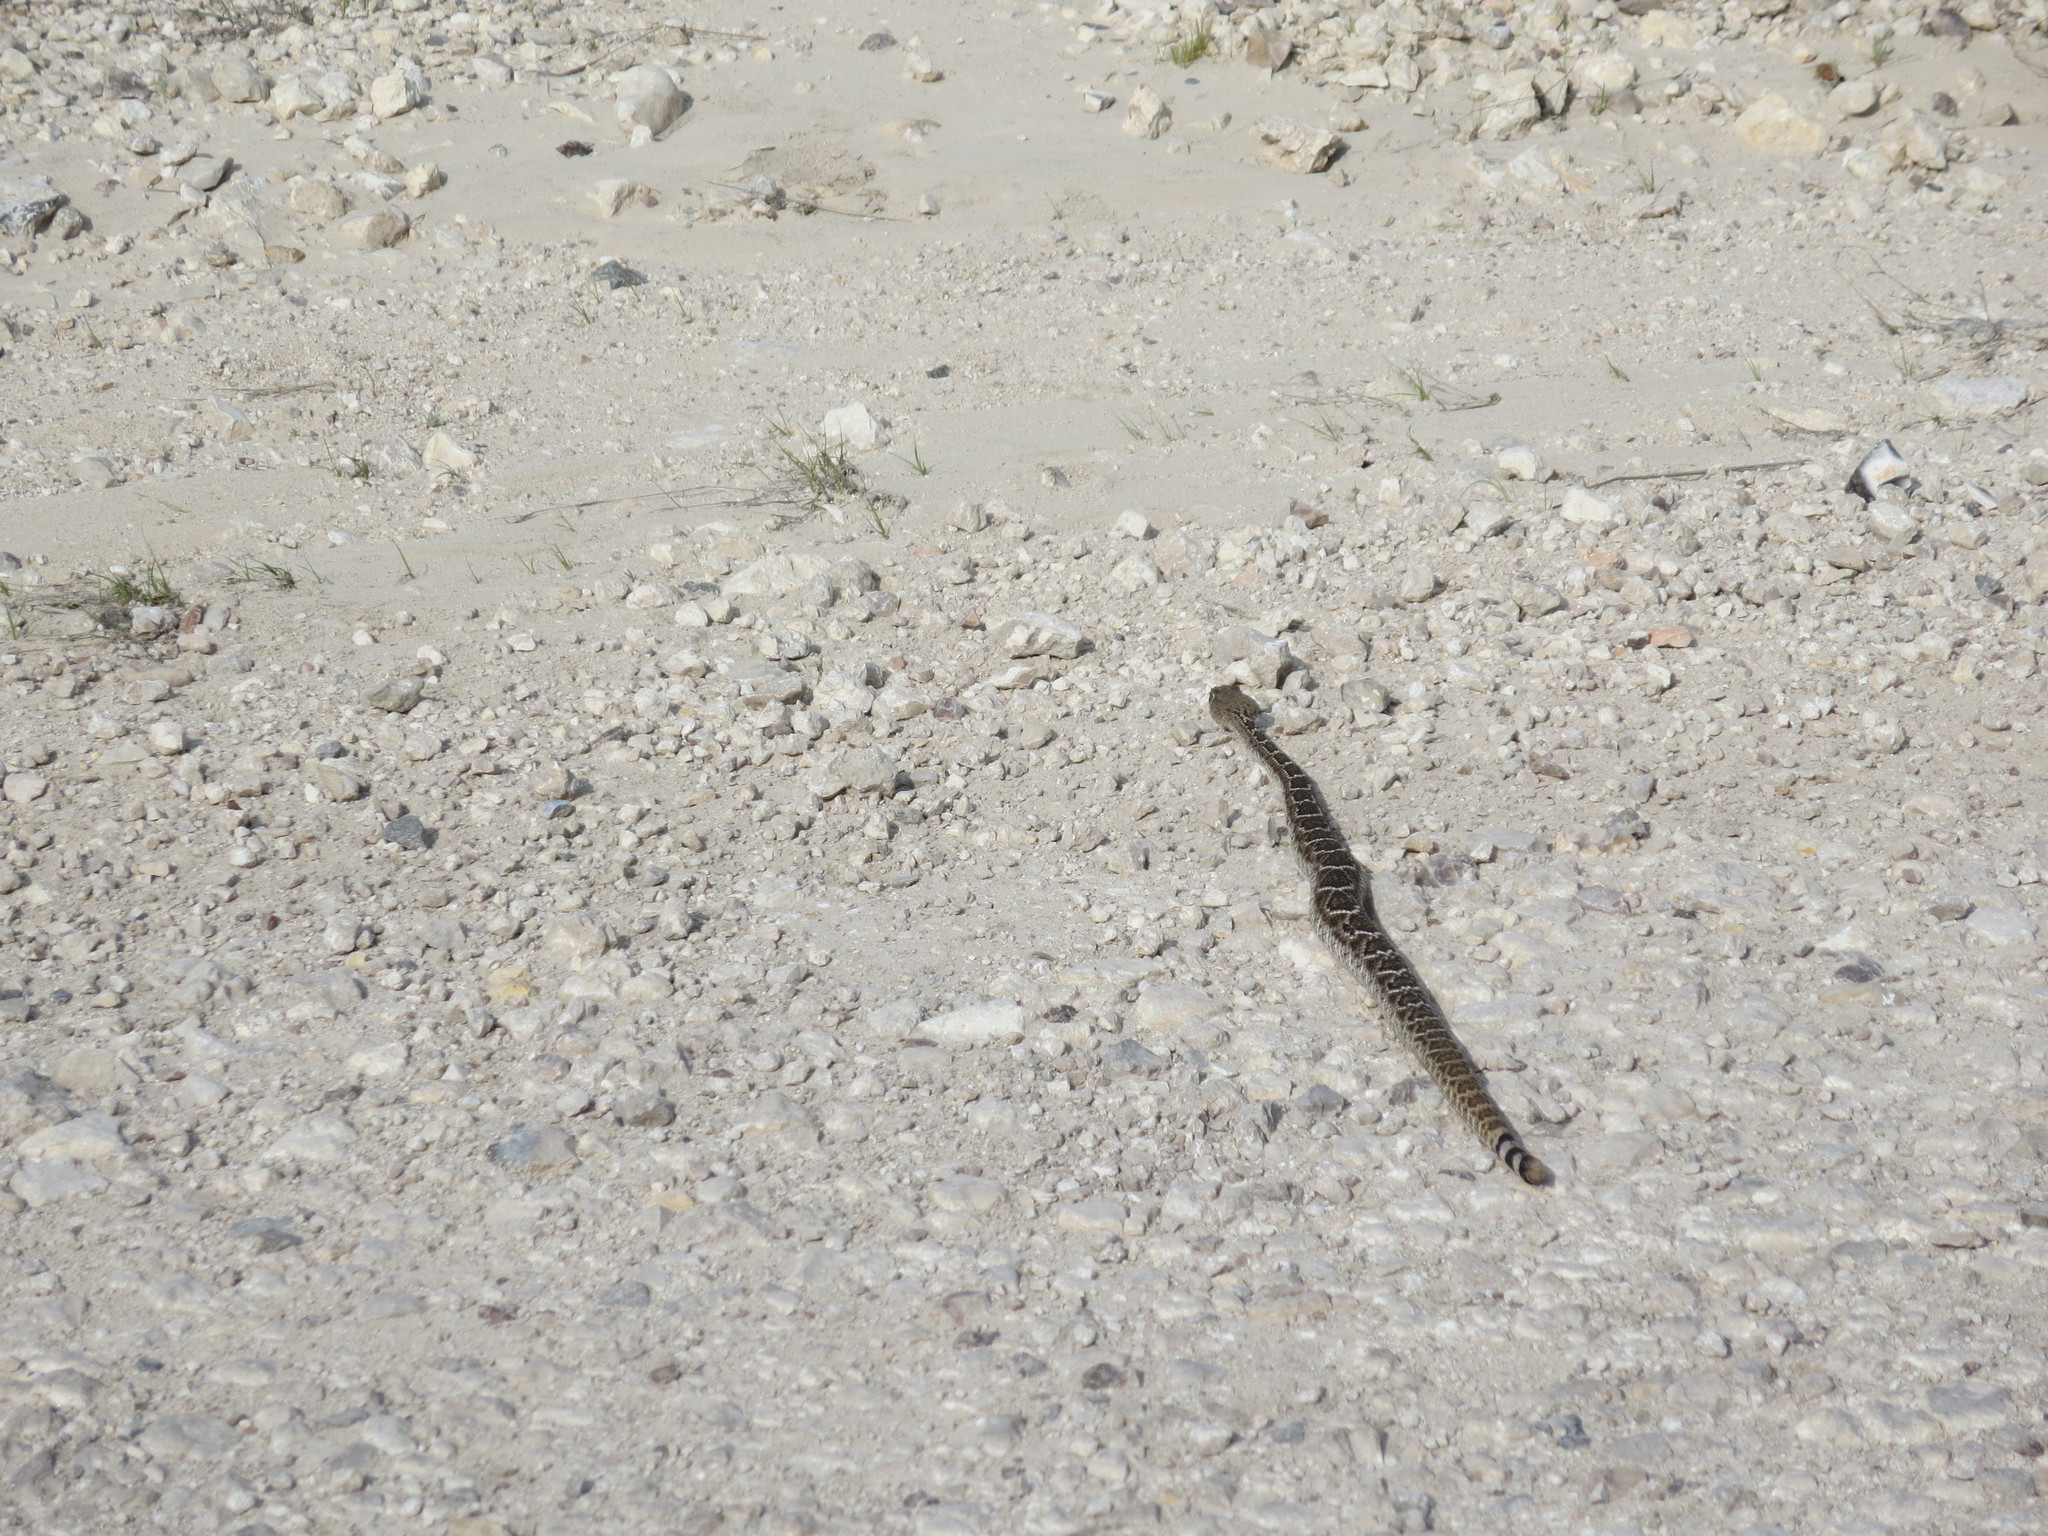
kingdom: Animalia
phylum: Chordata
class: Squamata
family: Viperidae
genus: Crotalus
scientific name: Crotalus atrox
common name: Western diamond-backed rattlesnake
